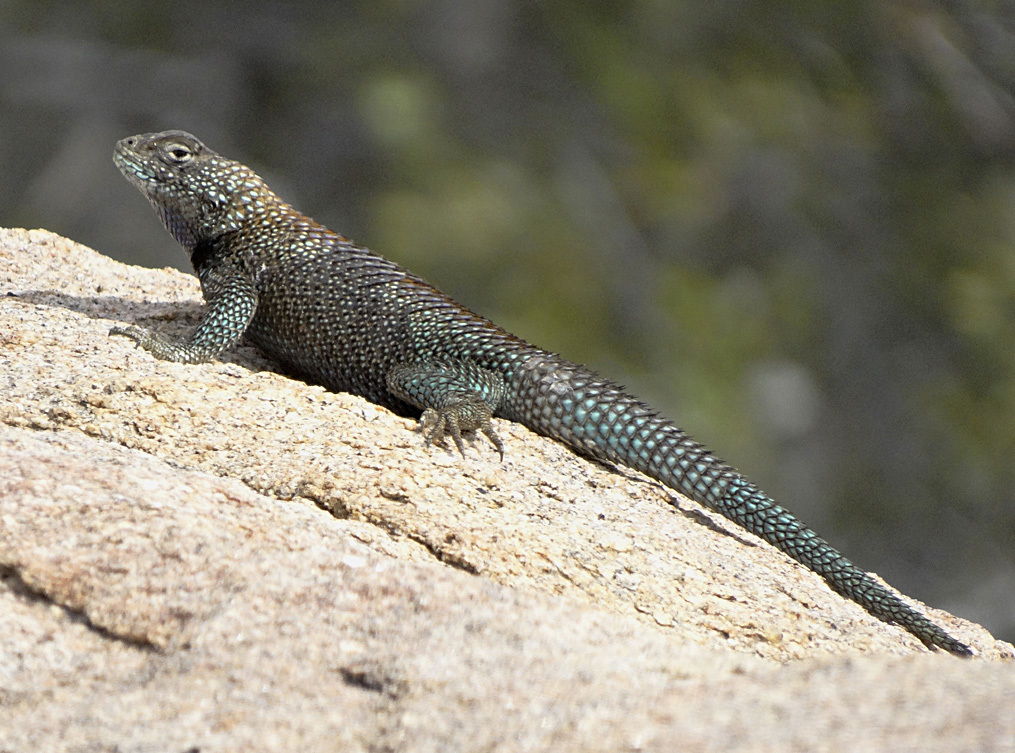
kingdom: Animalia
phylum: Chordata
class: Squamata
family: Phrynosomatidae
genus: Sceloporus
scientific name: Sceloporus orcutti
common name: Granite spiny lizard
